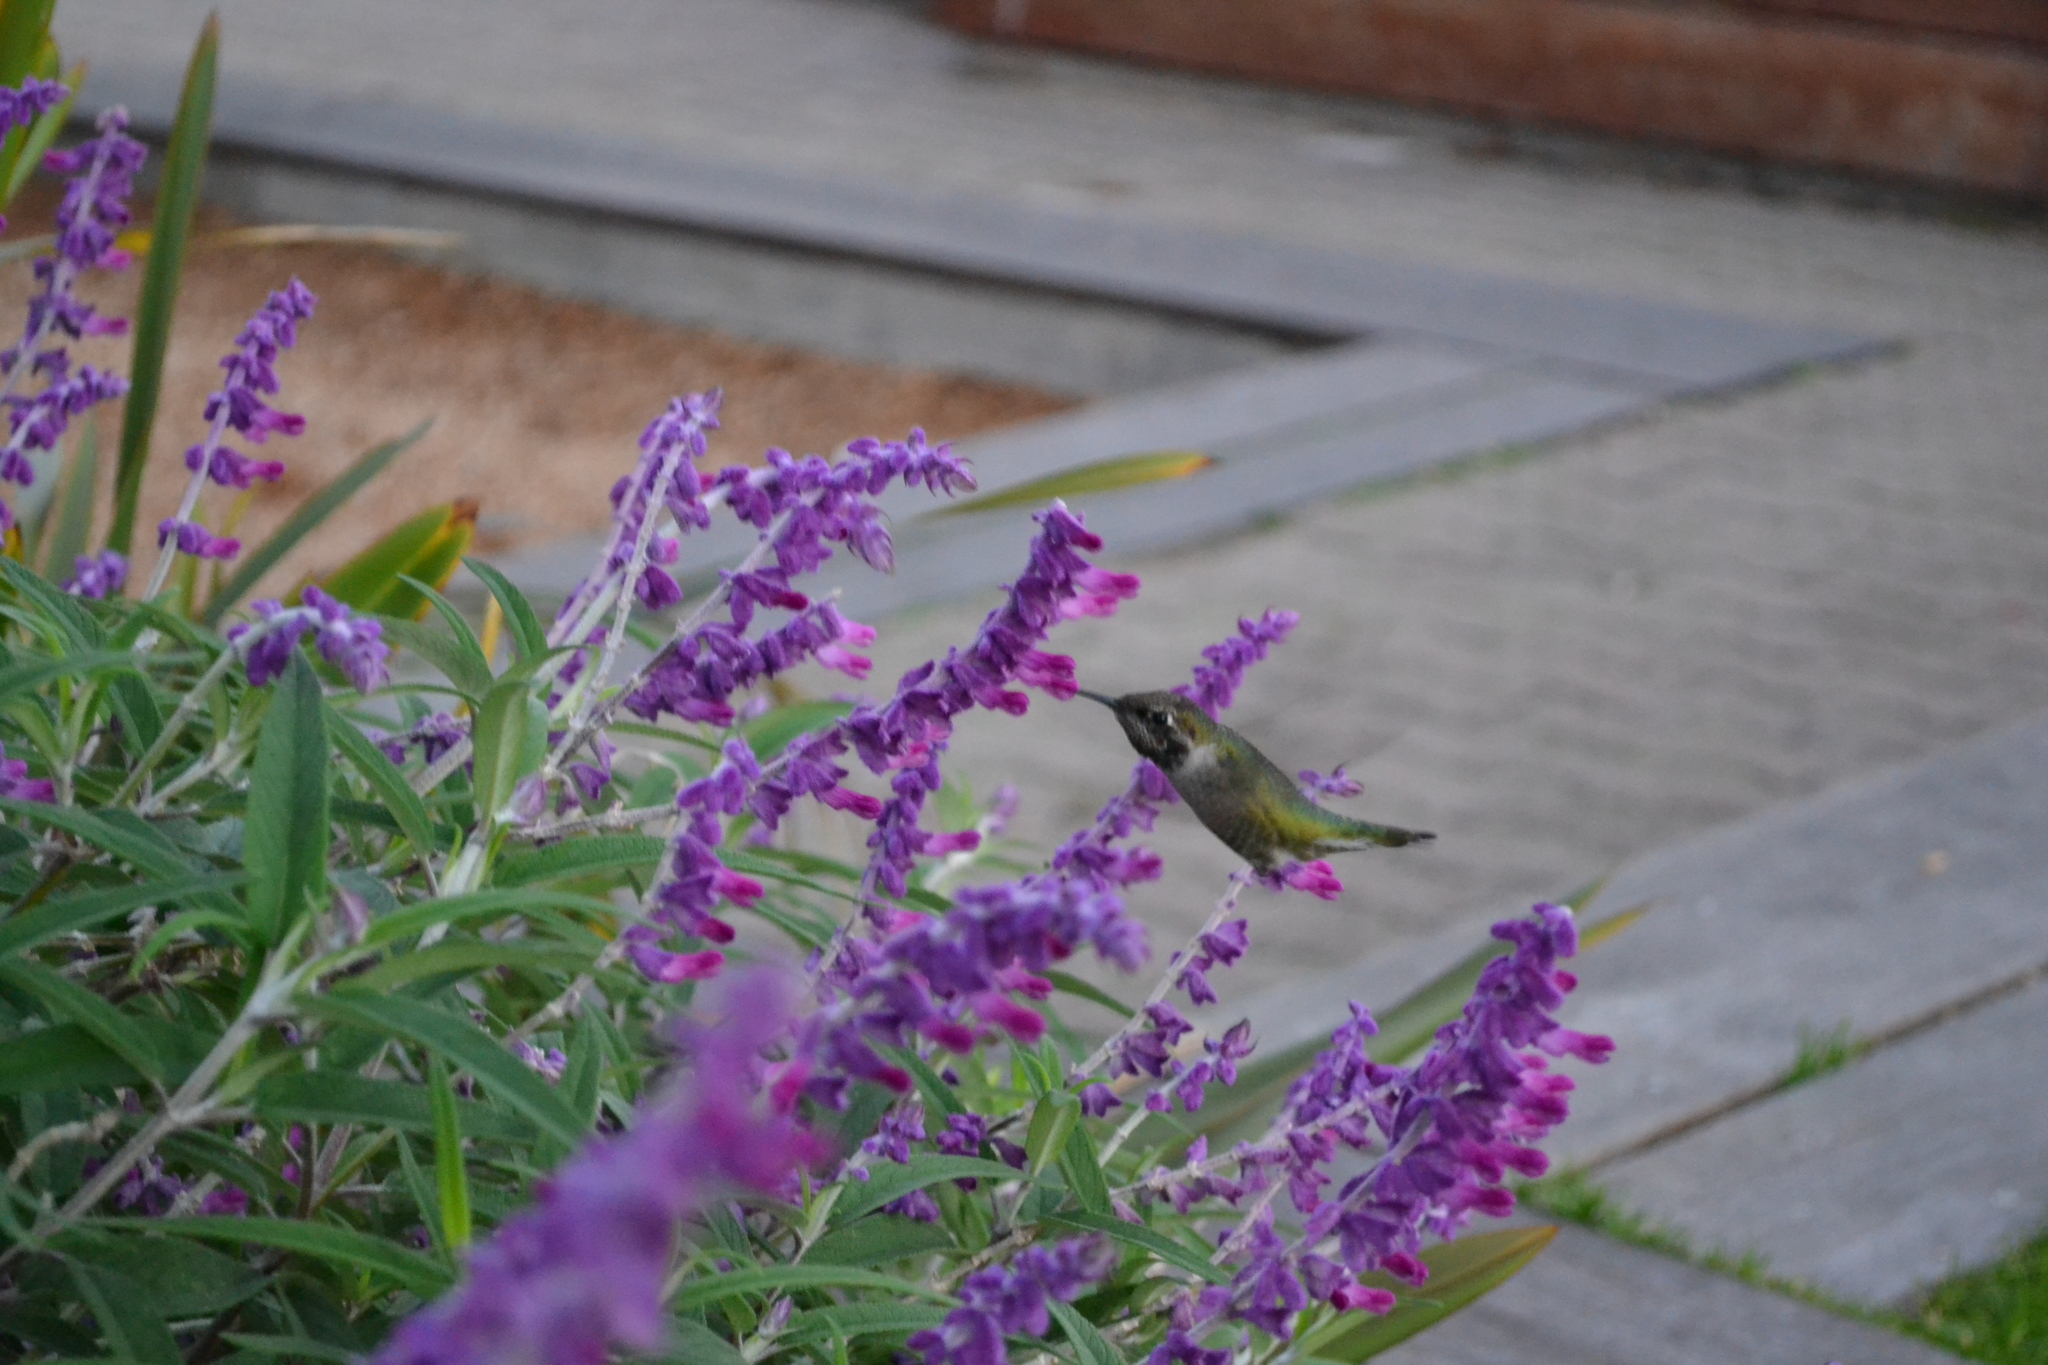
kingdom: Animalia
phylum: Chordata
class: Aves
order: Apodiformes
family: Trochilidae
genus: Calypte
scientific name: Calypte anna
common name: Anna's hummingbird
